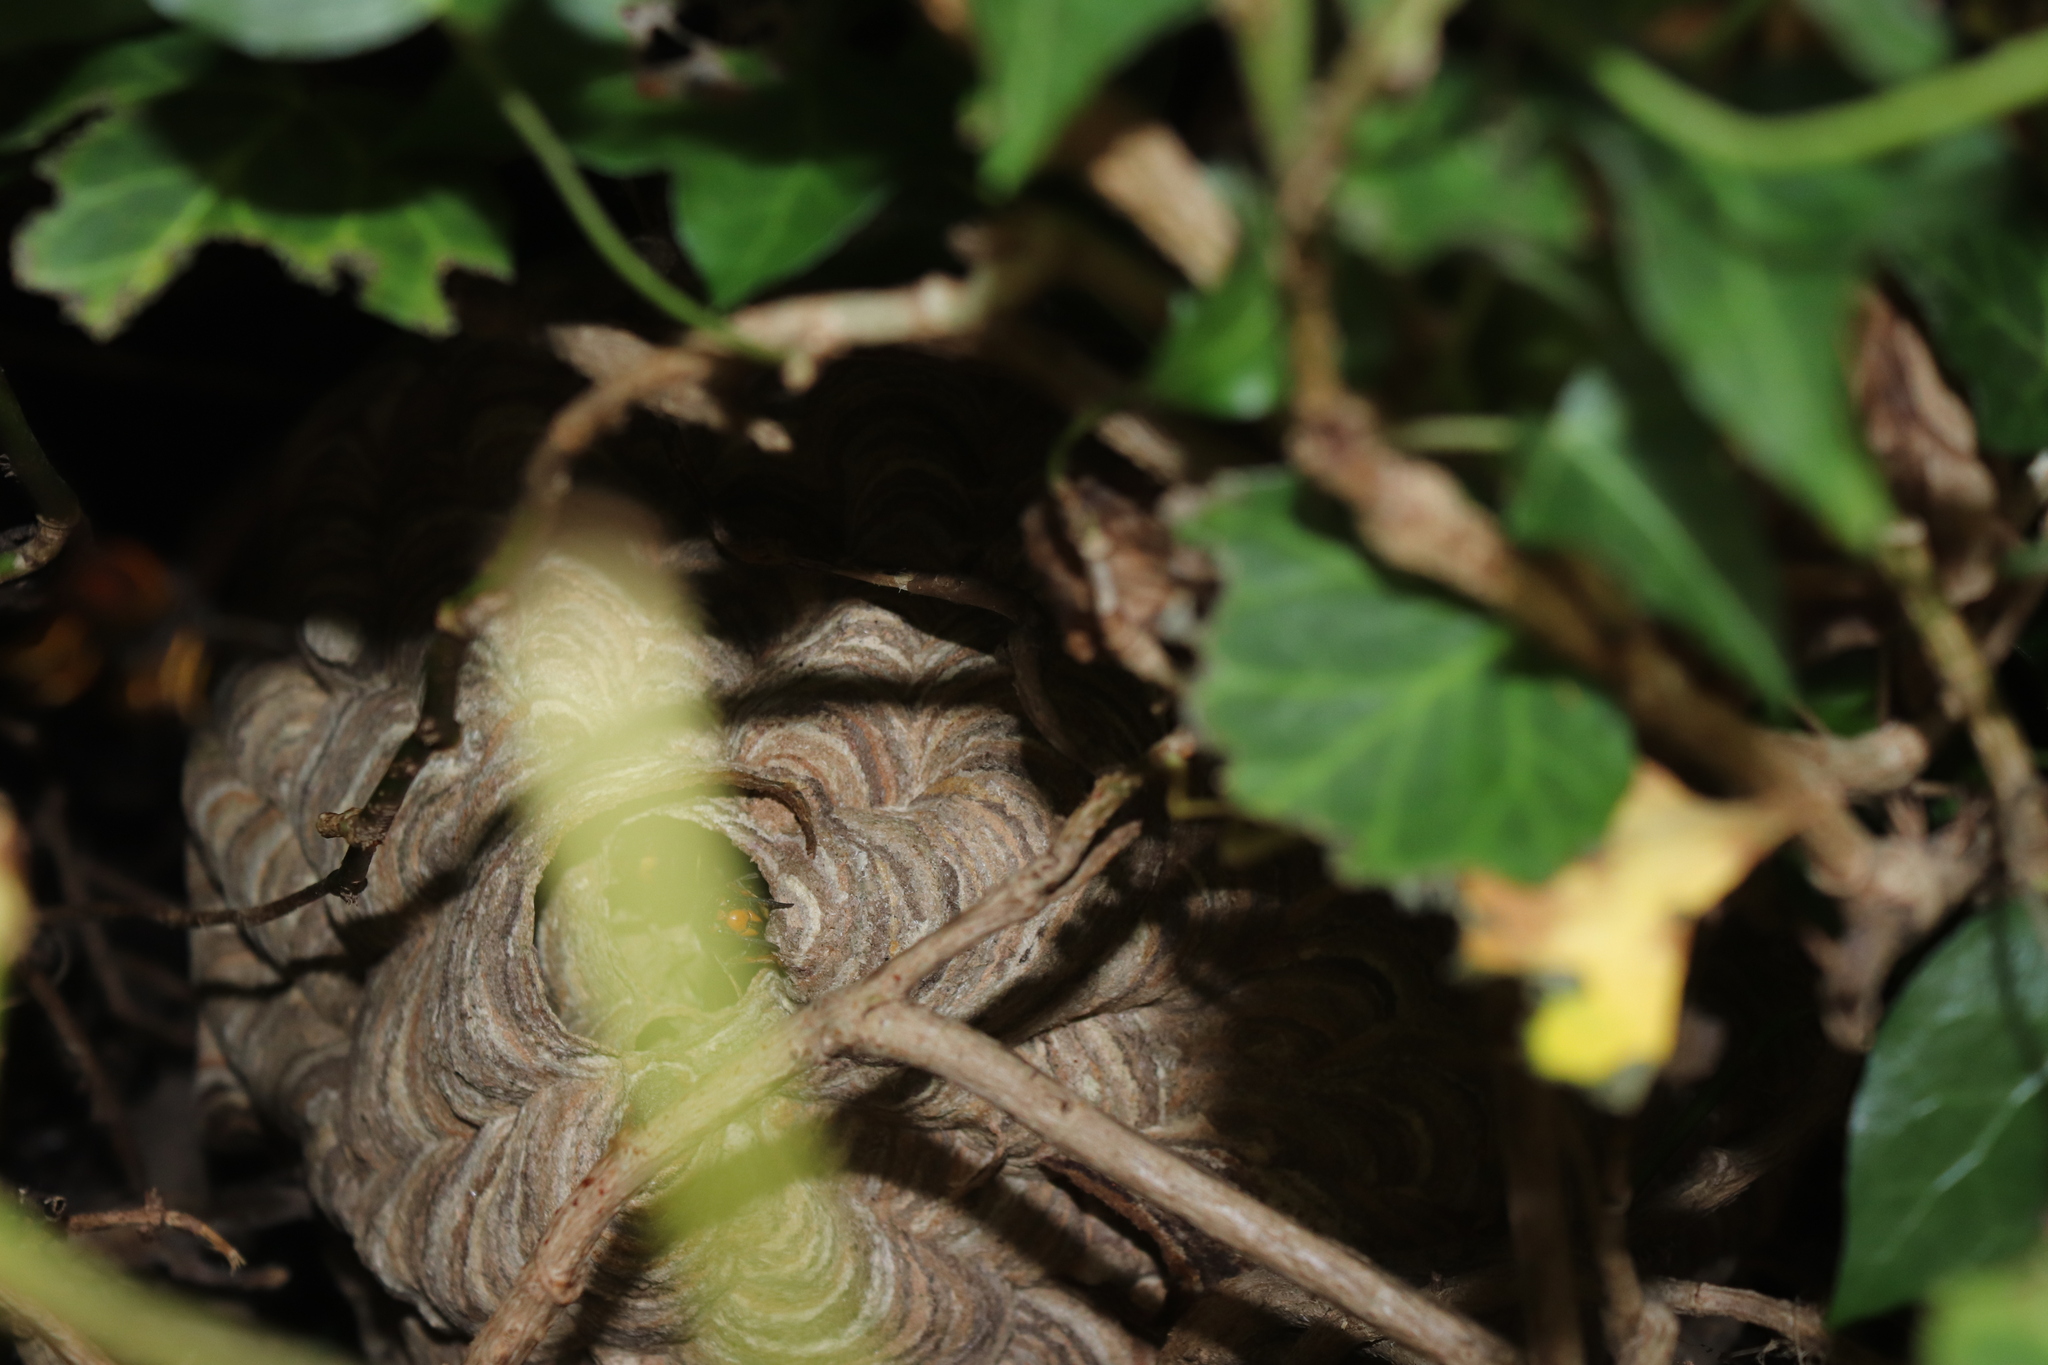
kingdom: Animalia
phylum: Arthropoda
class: Insecta
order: Hymenoptera
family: Vespidae
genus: Vespa
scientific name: Vespa velutina
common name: Asian hornet
